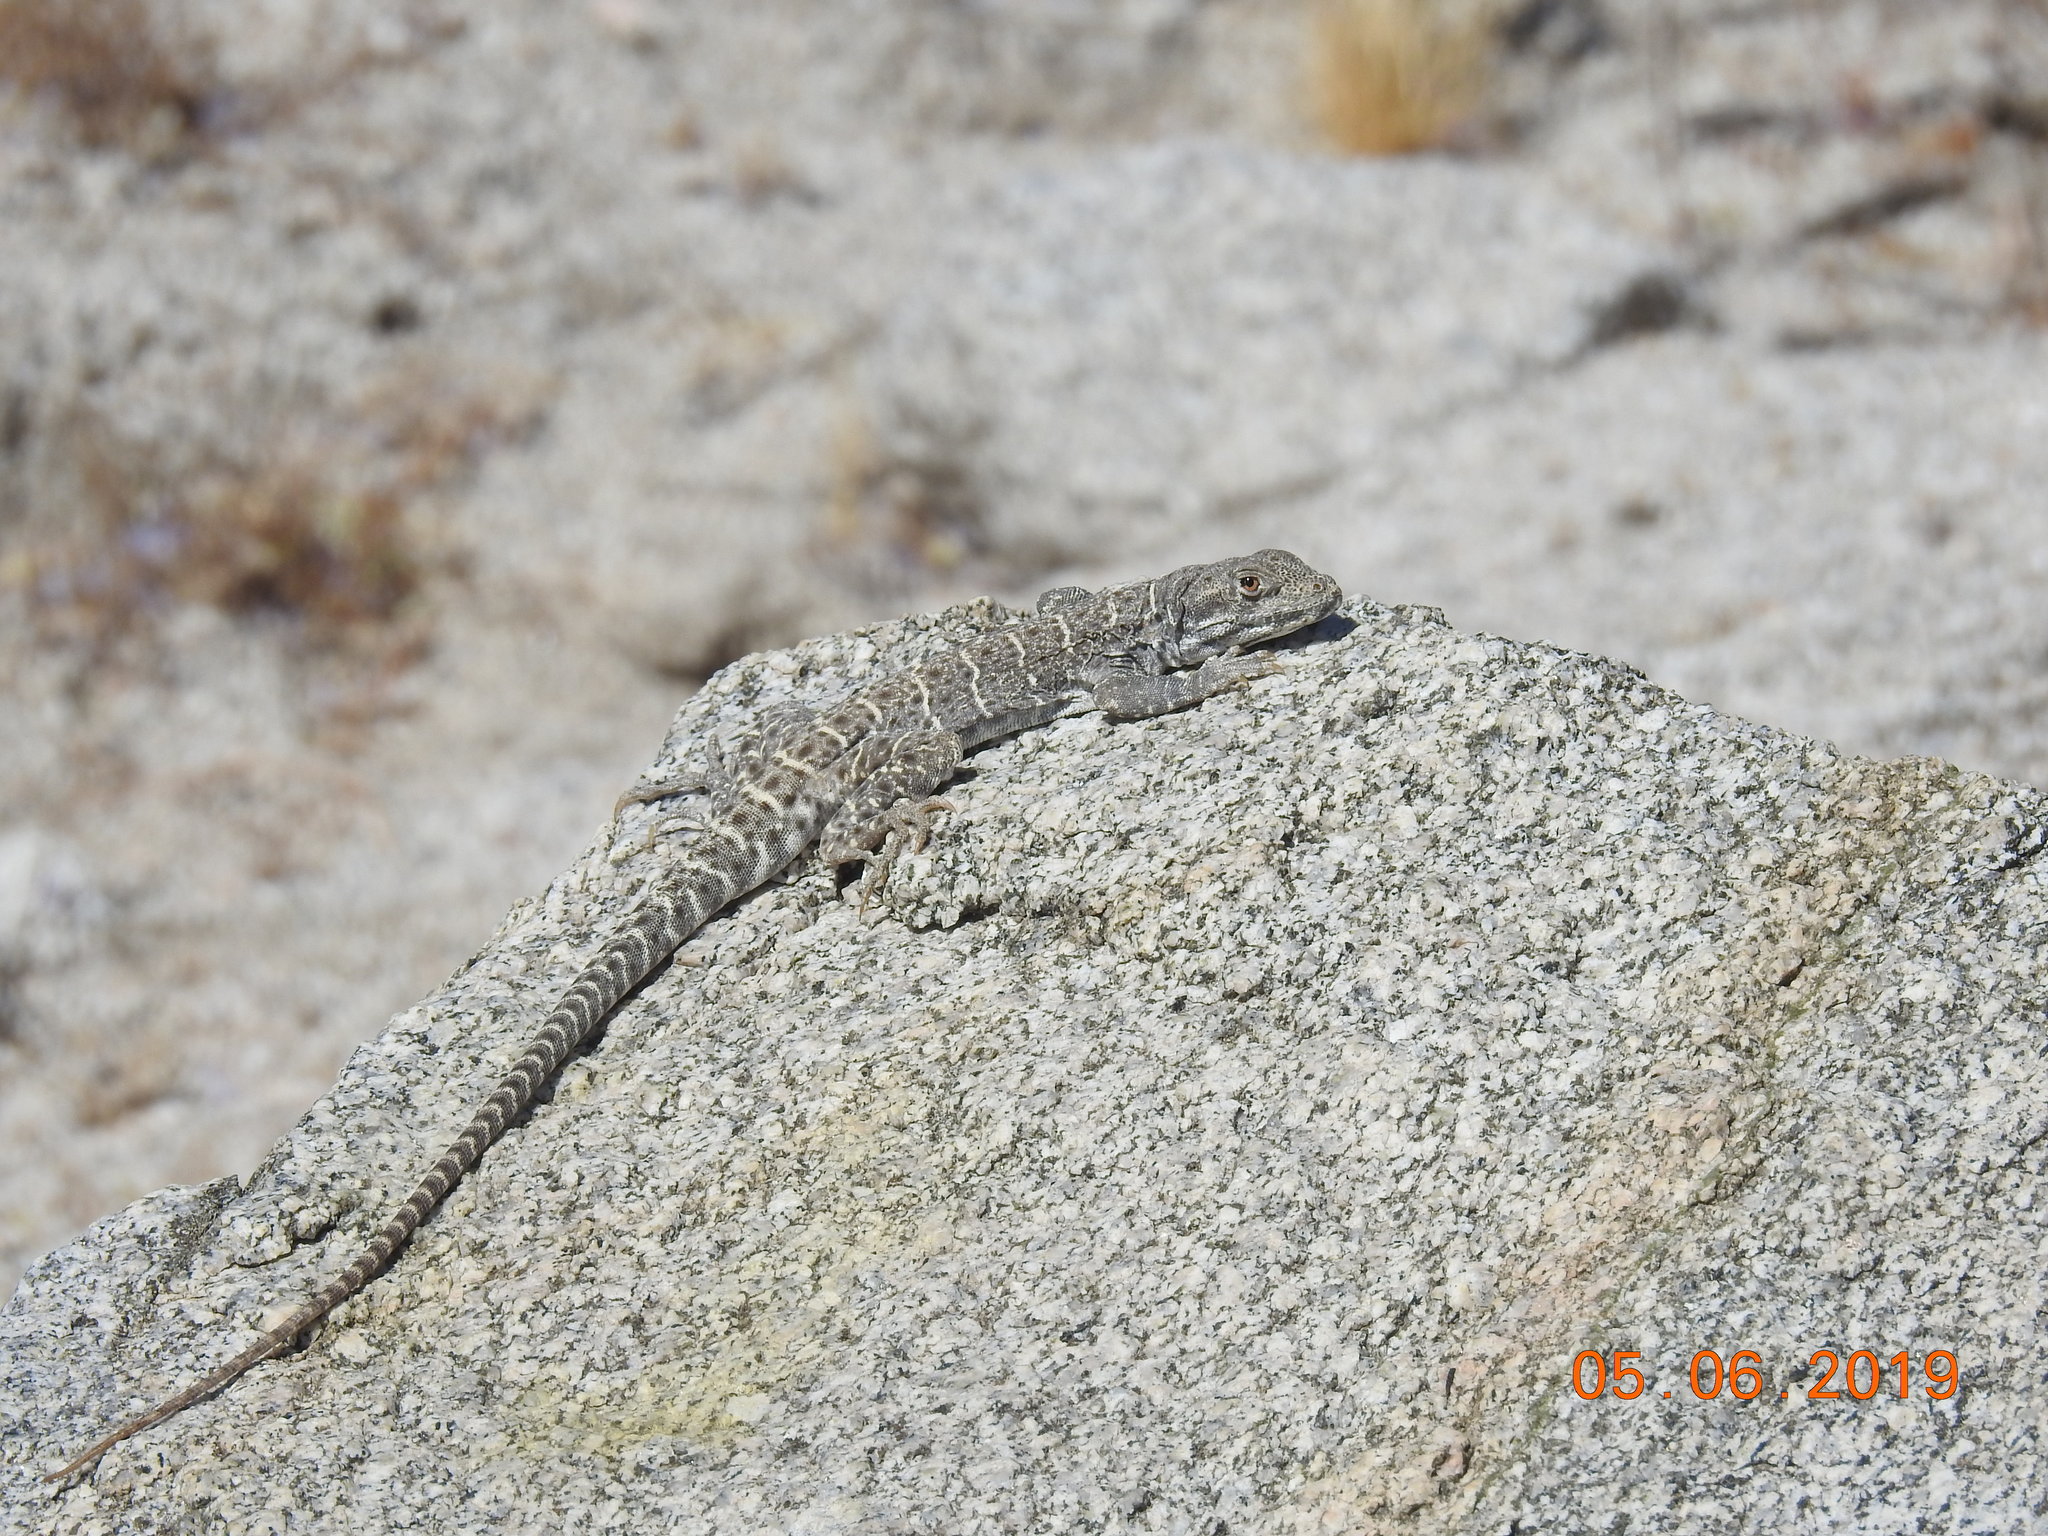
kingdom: Animalia
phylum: Chordata
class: Squamata
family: Crotaphytidae
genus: Gambelia
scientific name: Gambelia wislizenii
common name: Longnose leopard lizard
